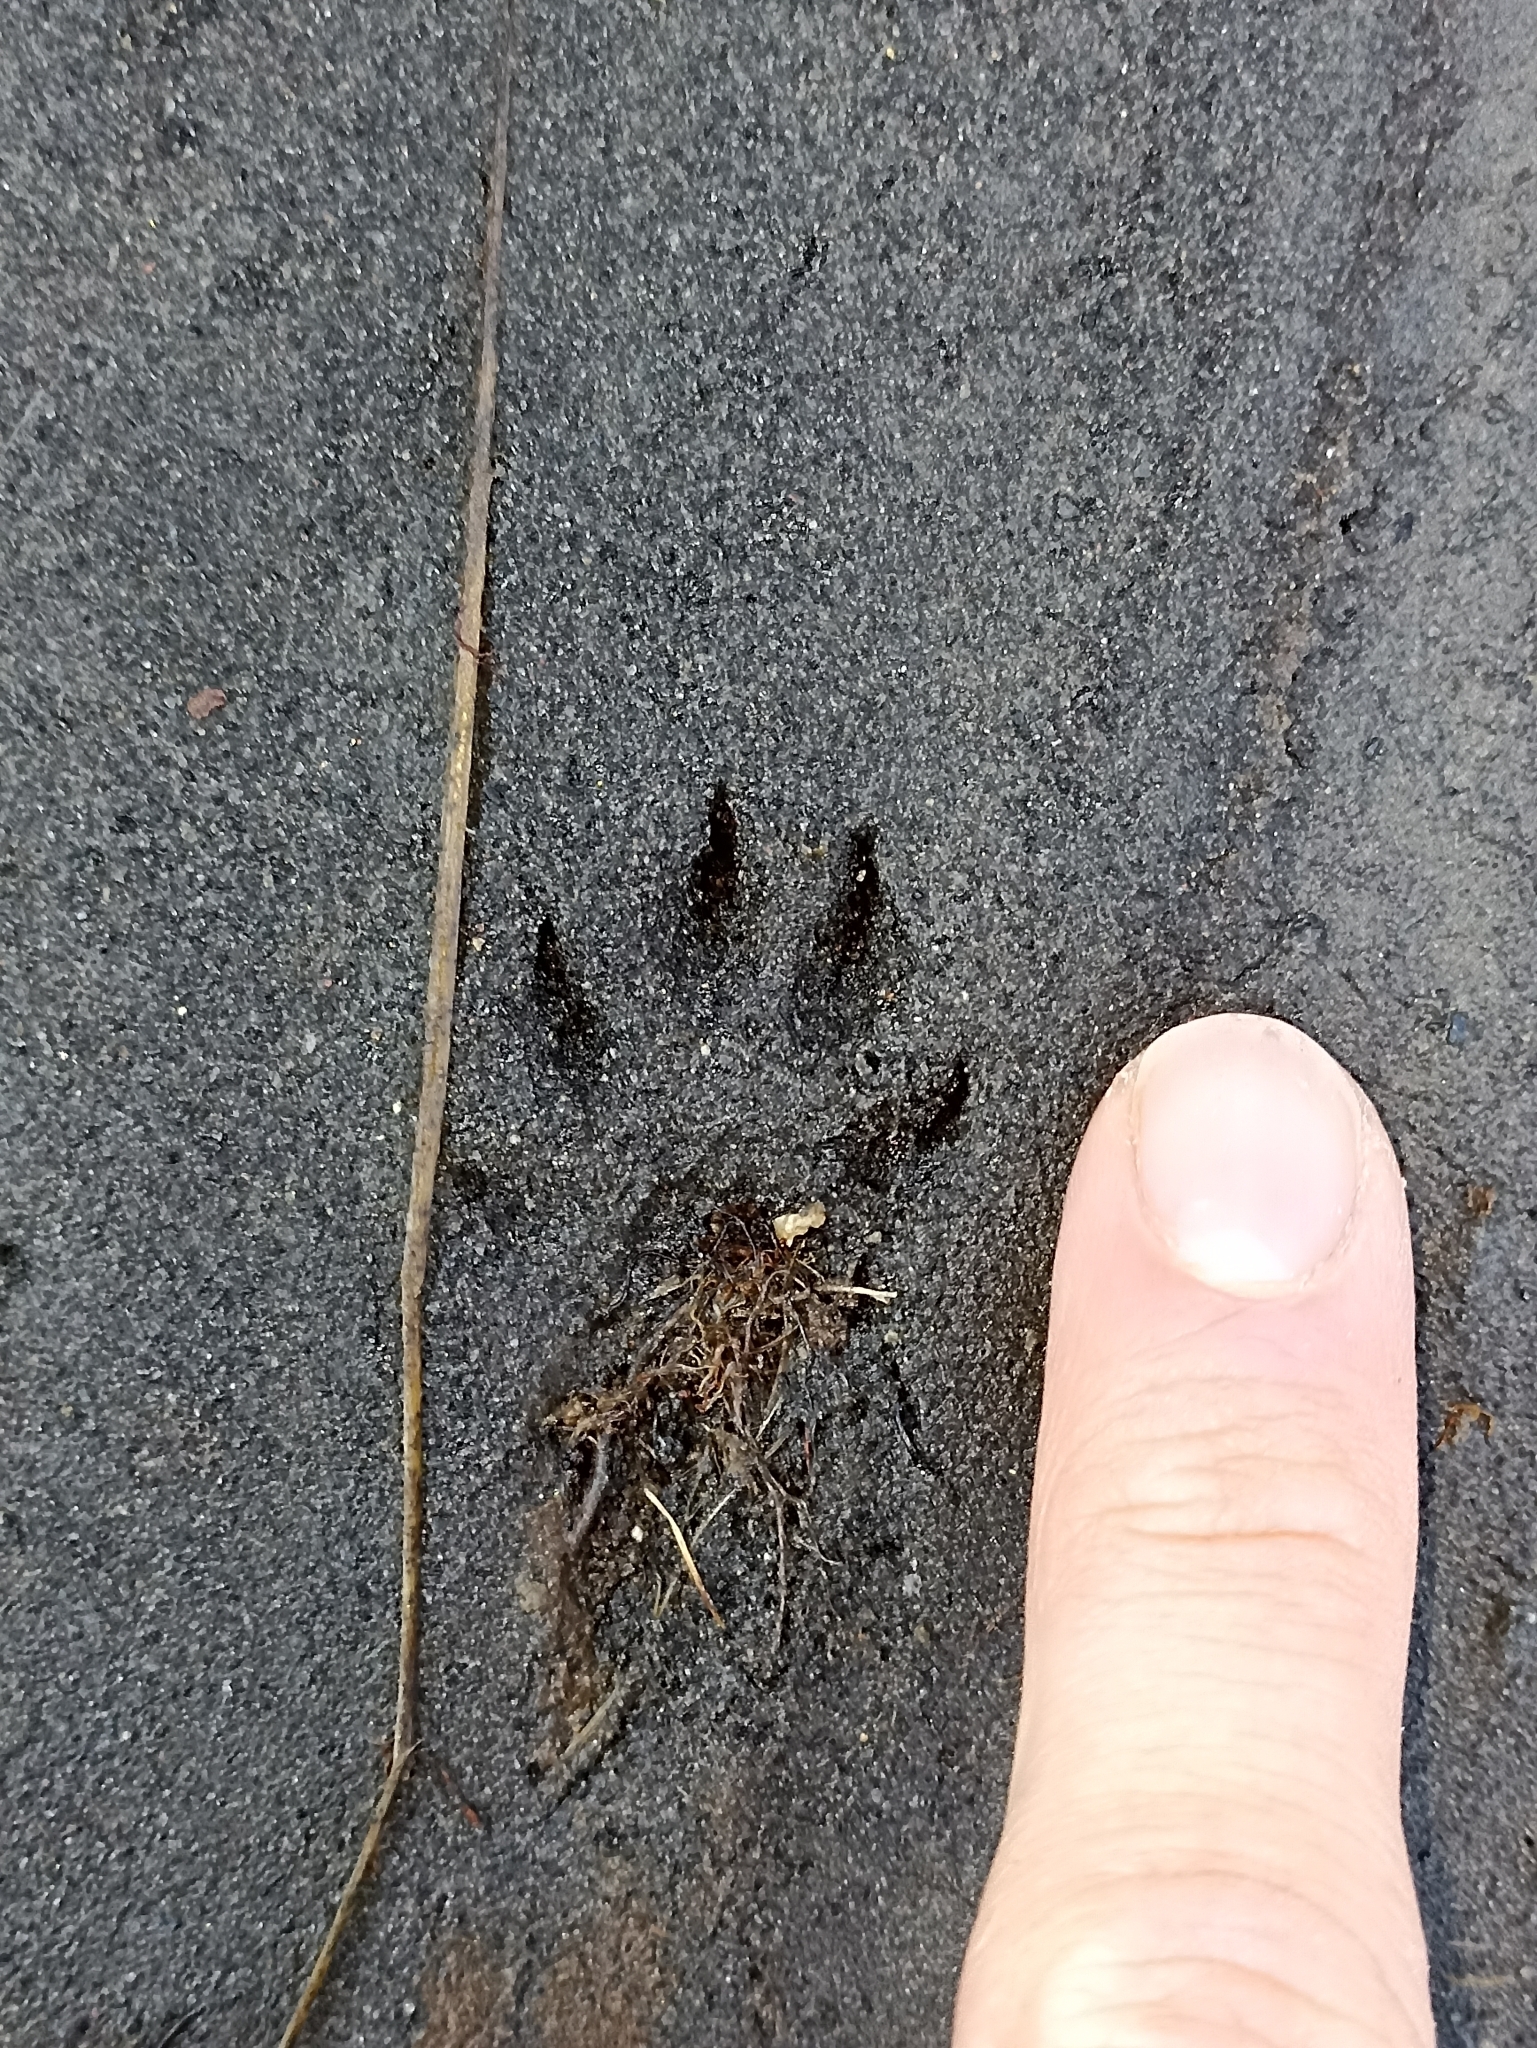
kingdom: Animalia
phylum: Chordata
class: Mammalia
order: Carnivora
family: Mustelidae
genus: Mustela
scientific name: Mustela erminea
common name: Stoat
